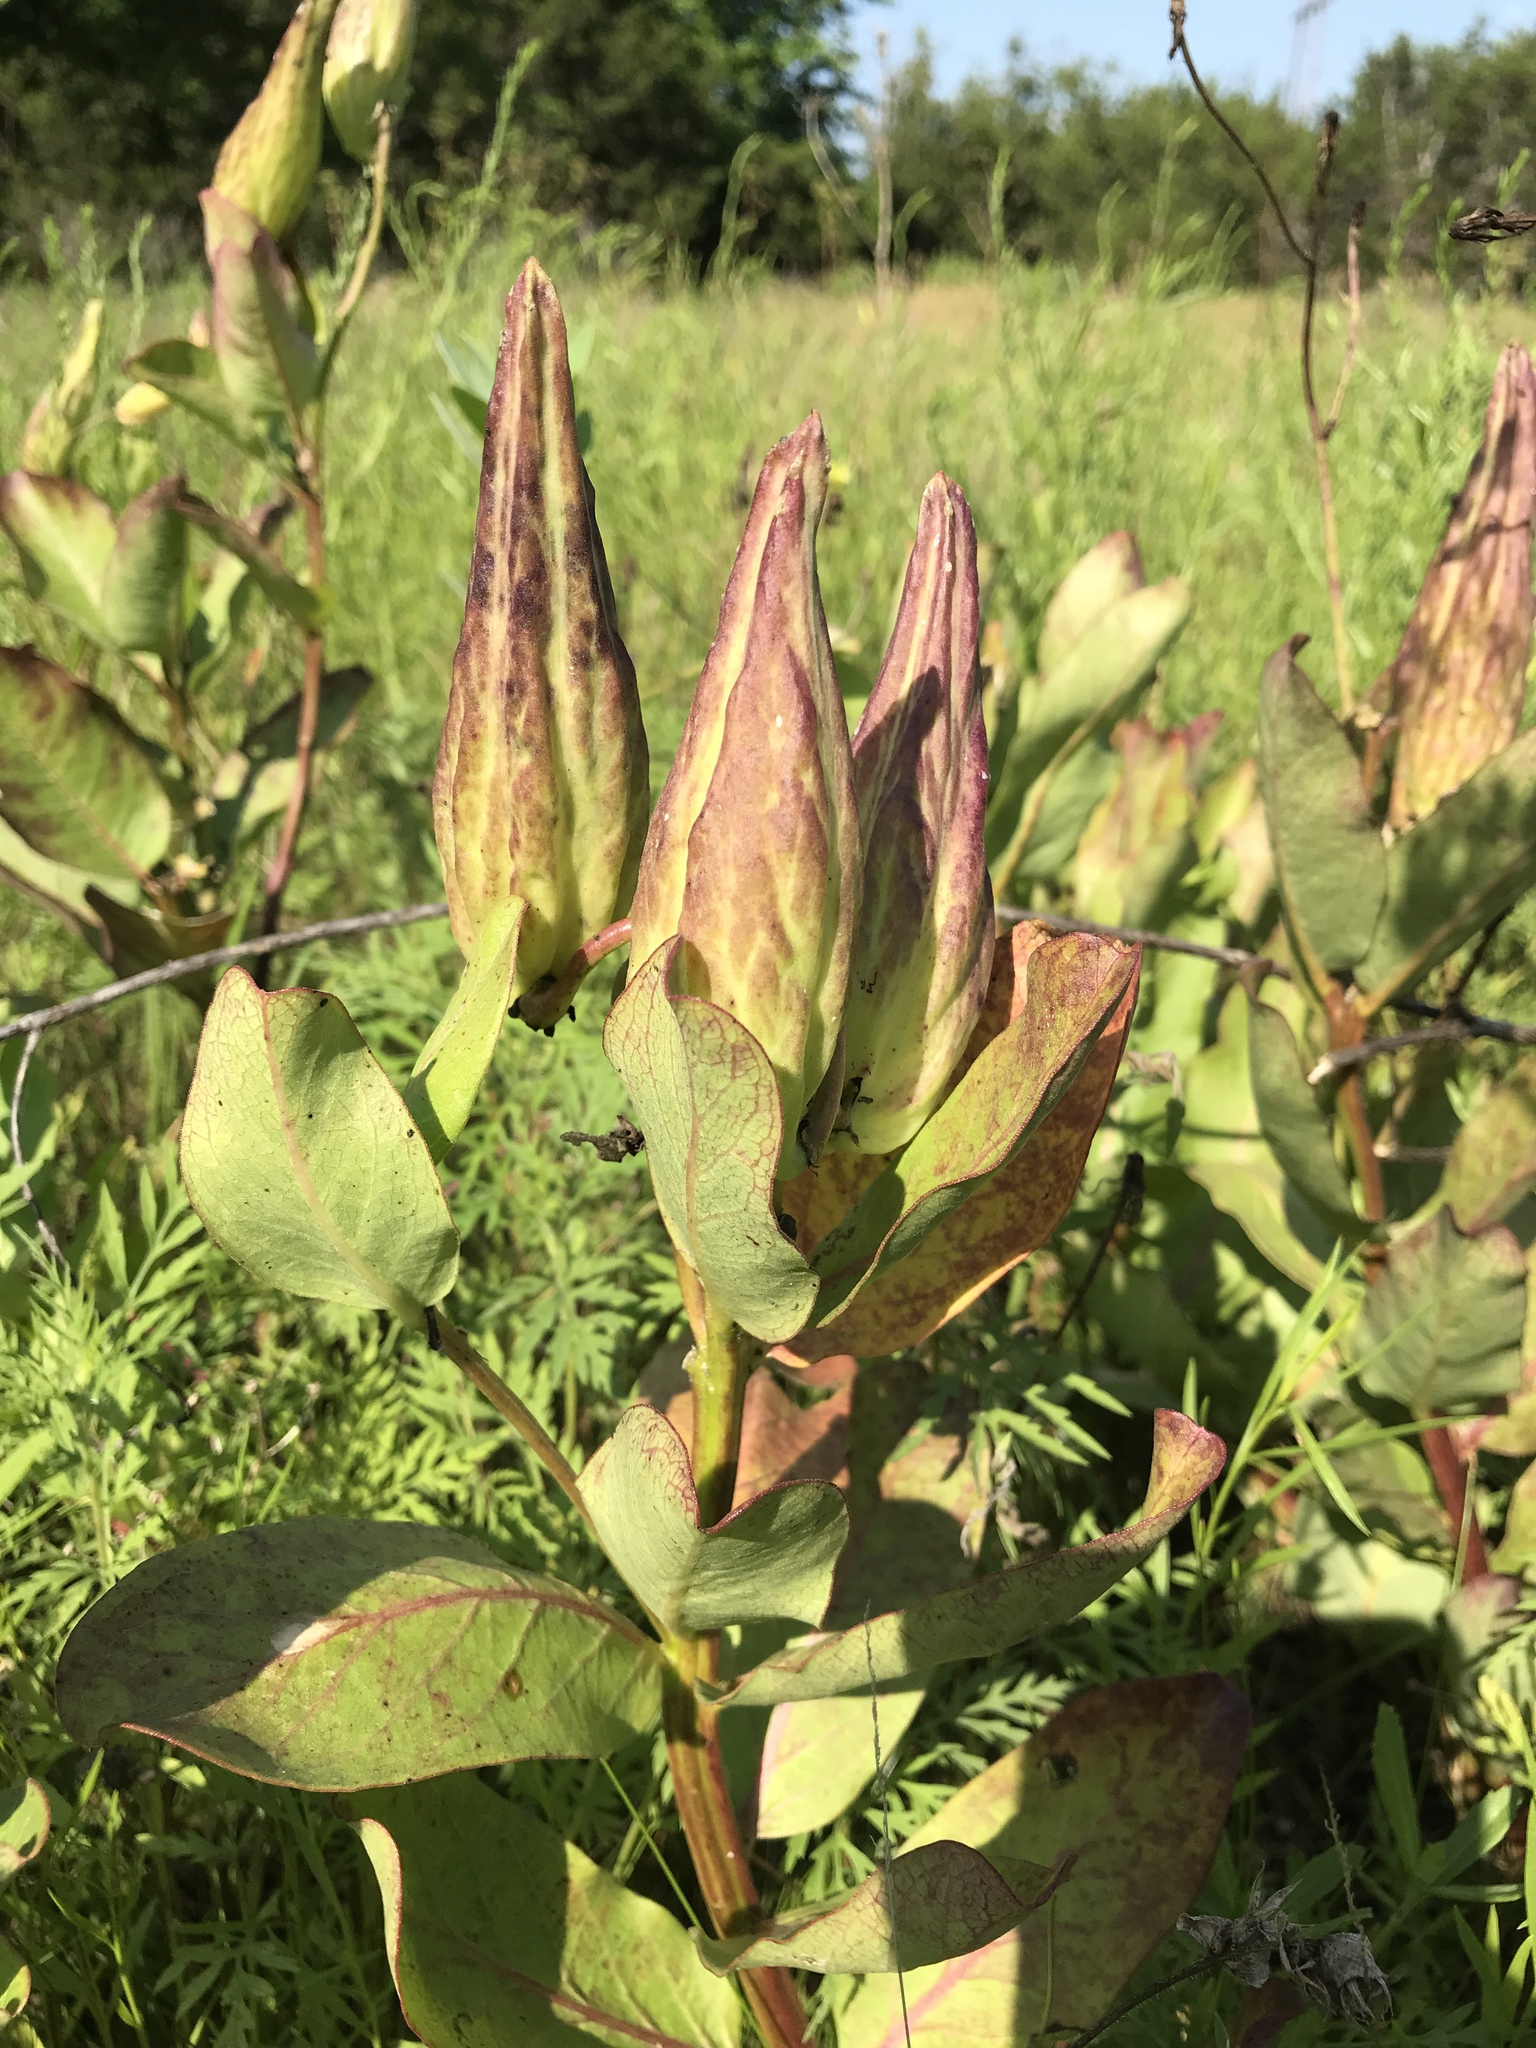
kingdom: Plantae
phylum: Tracheophyta
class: Magnoliopsida
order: Gentianales
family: Apocynaceae
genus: Asclepias
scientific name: Asclepias viridis
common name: Antelope-horns
